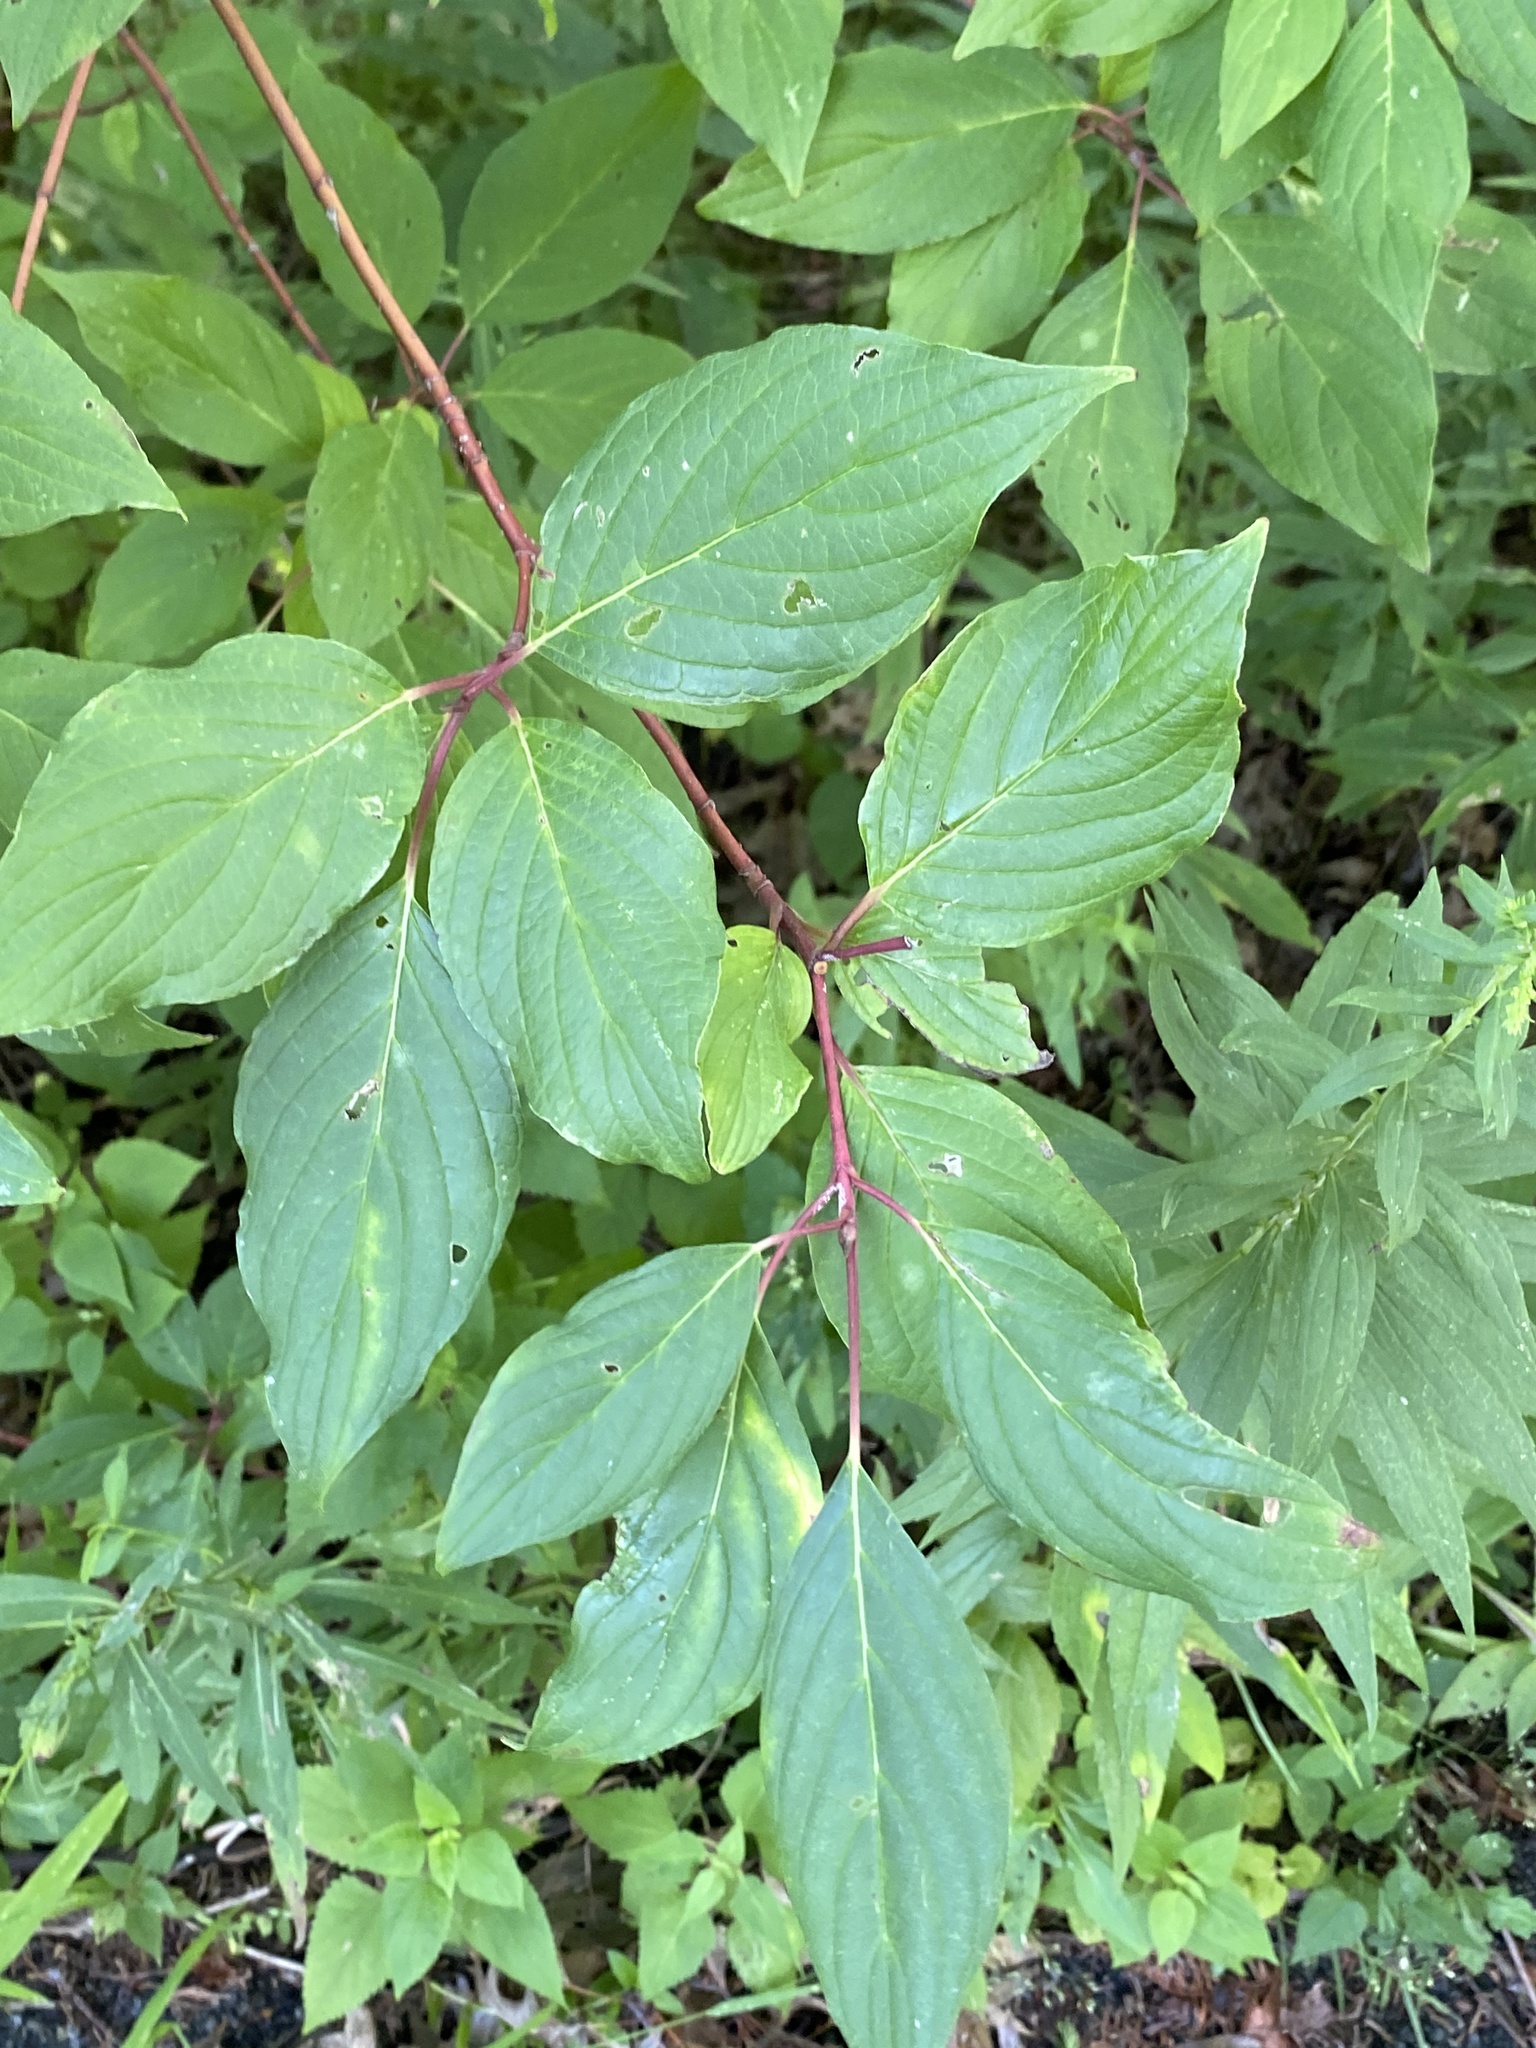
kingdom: Plantae
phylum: Tracheophyta
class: Magnoliopsida
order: Cornales
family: Cornaceae
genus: Cornus
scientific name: Cornus sericea
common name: Red-osier dogwood
